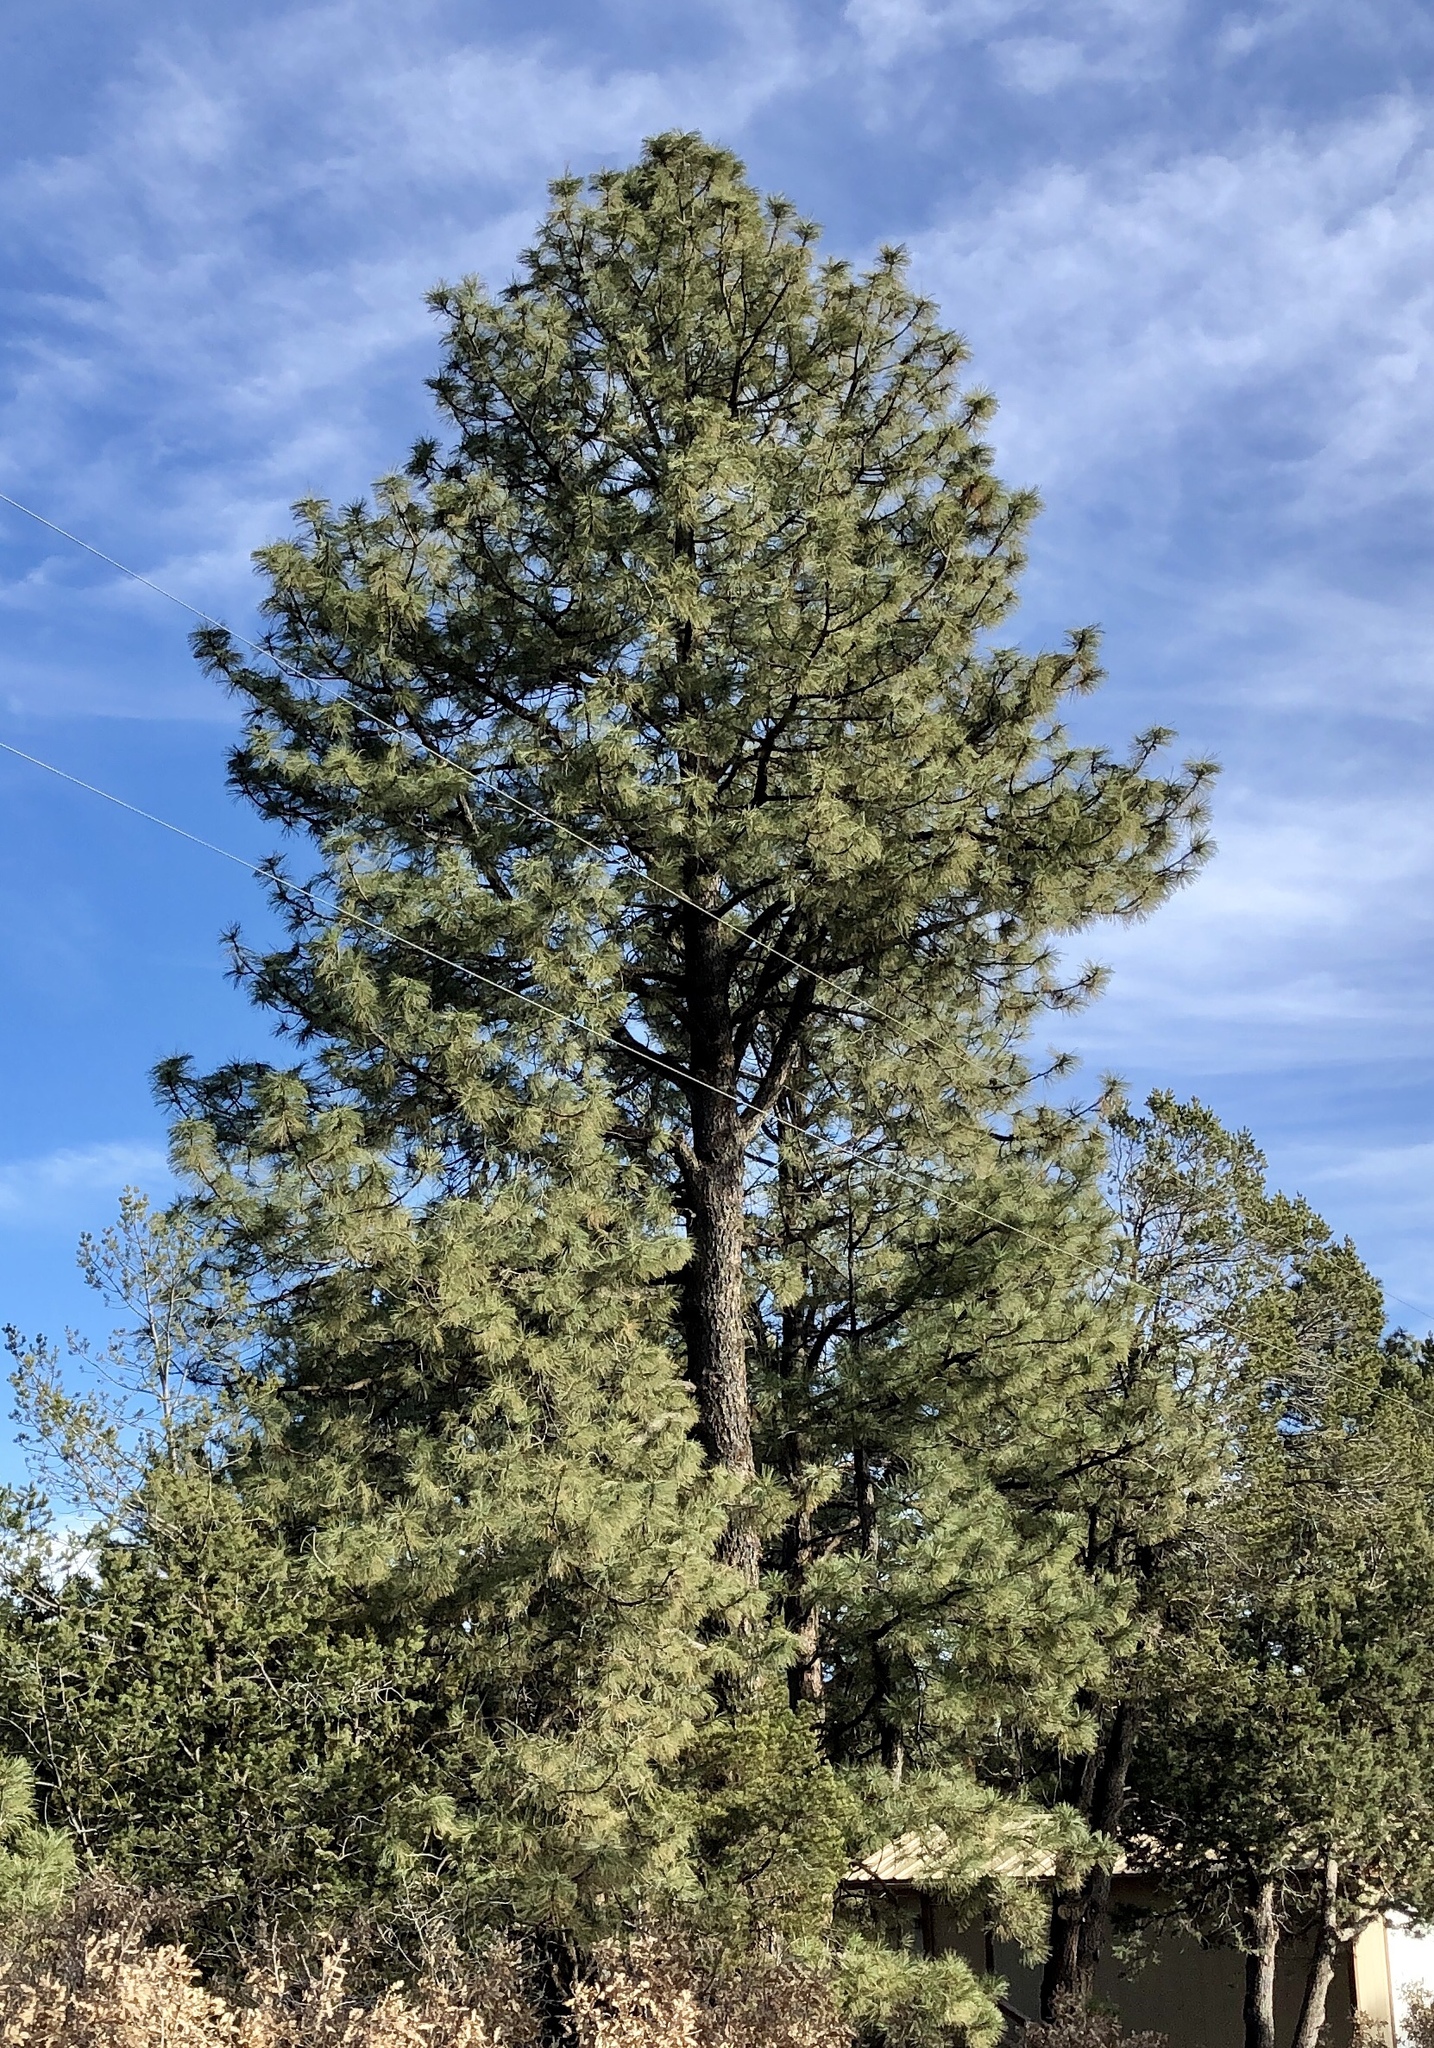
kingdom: Plantae
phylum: Tracheophyta
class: Pinopsida
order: Pinales
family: Pinaceae
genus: Pinus
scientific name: Pinus ponderosa
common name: Western yellow-pine
